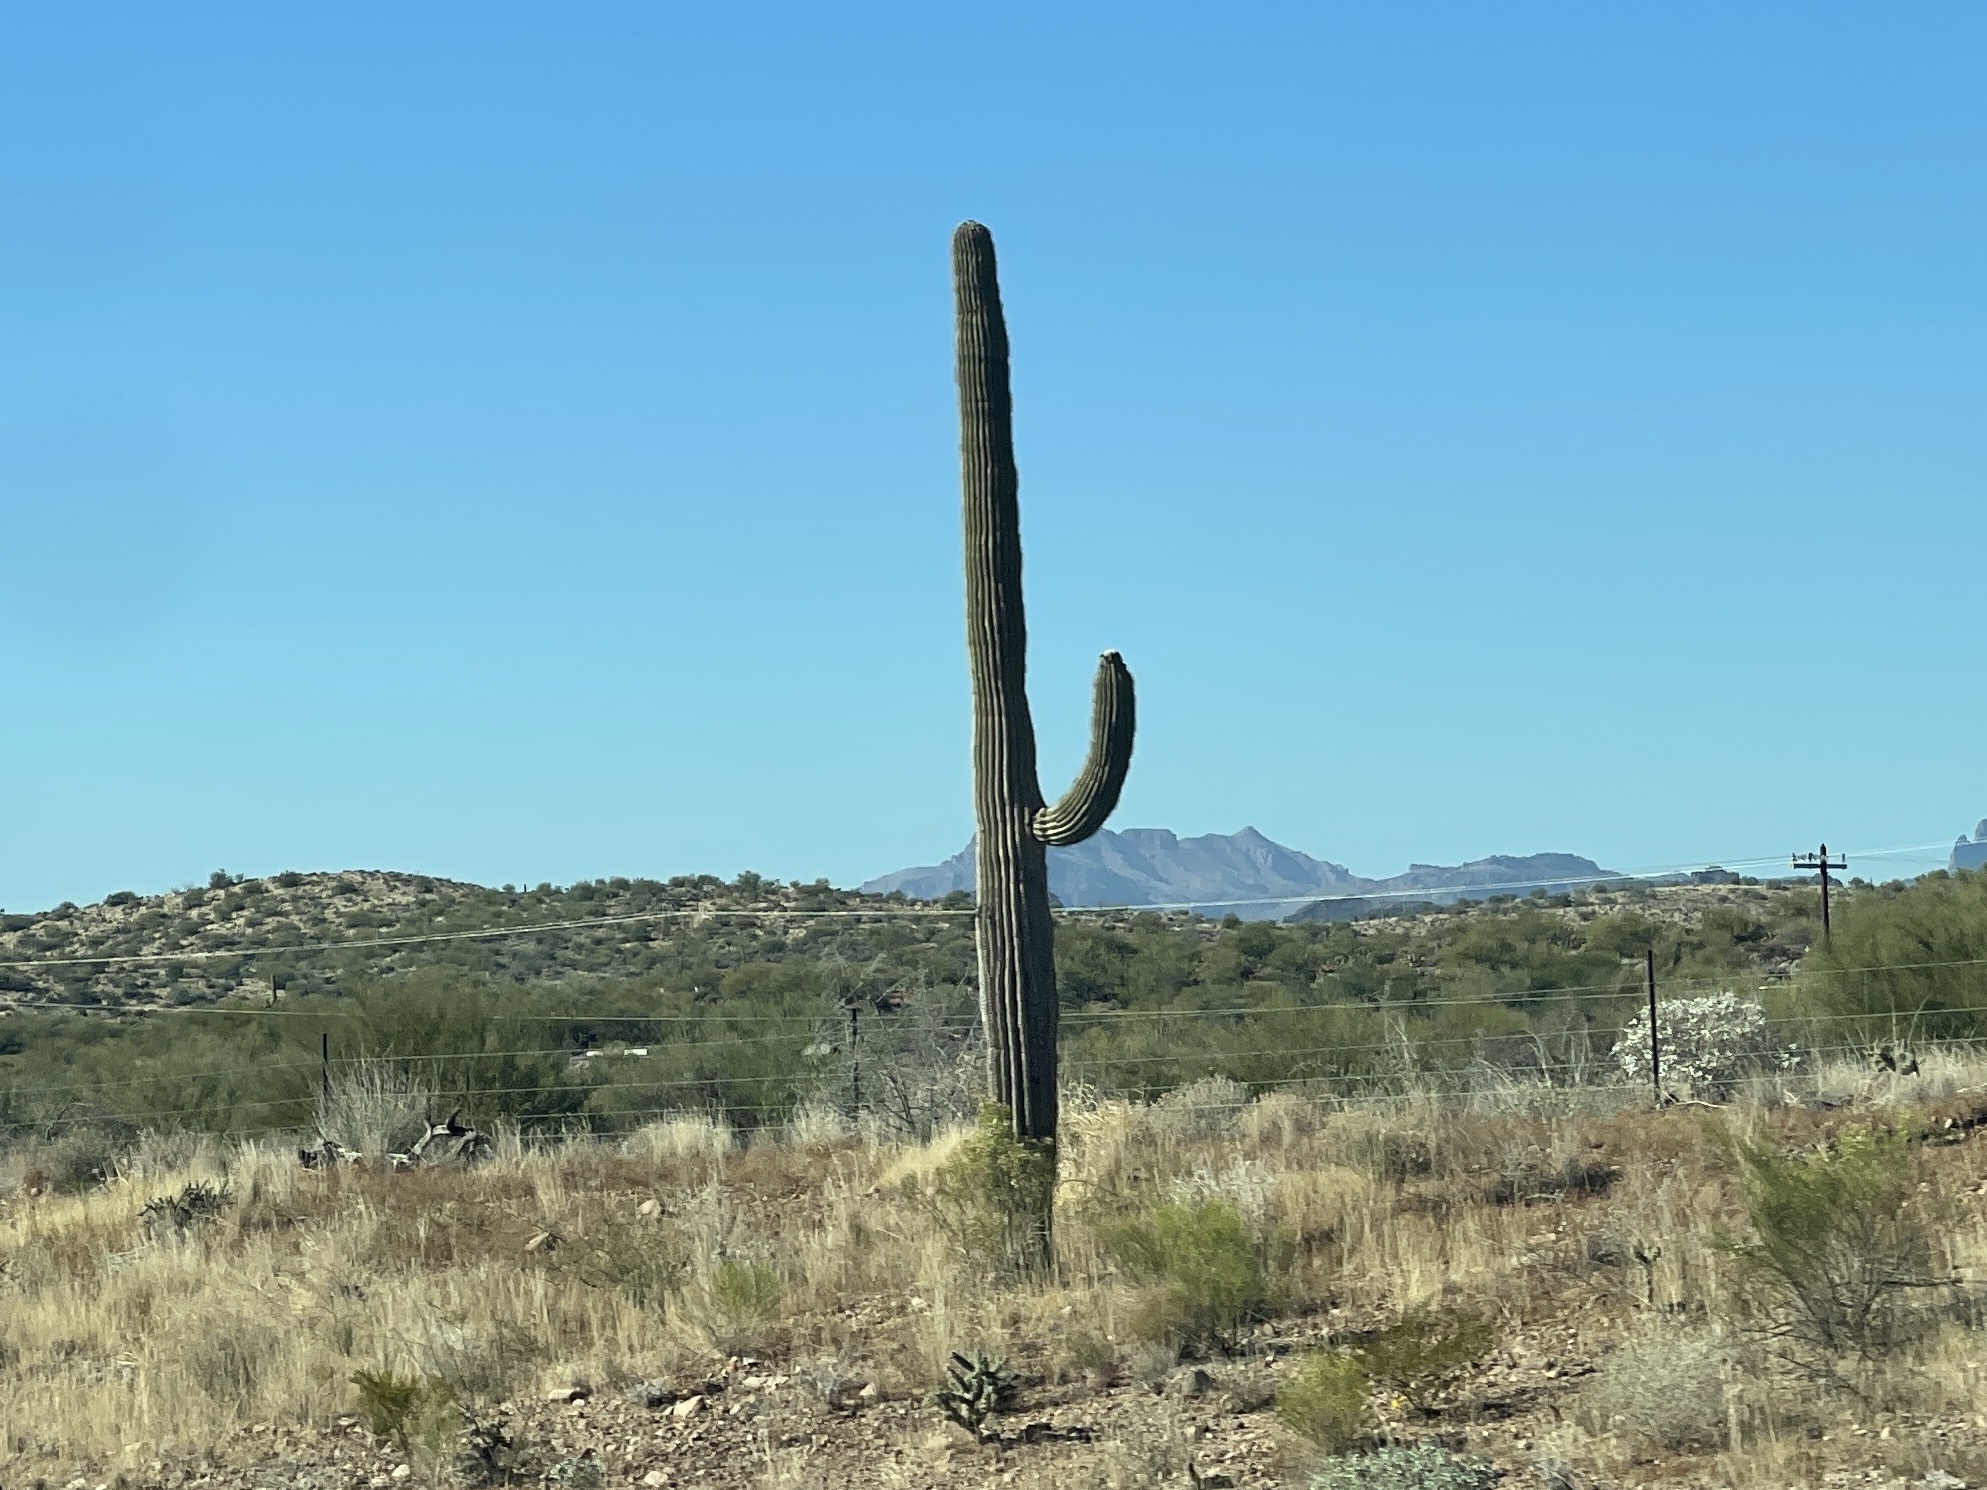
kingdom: Plantae
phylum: Tracheophyta
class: Magnoliopsida
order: Caryophyllales
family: Cactaceae
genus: Carnegiea
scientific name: Carnegiea gigantea
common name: Saguaro
